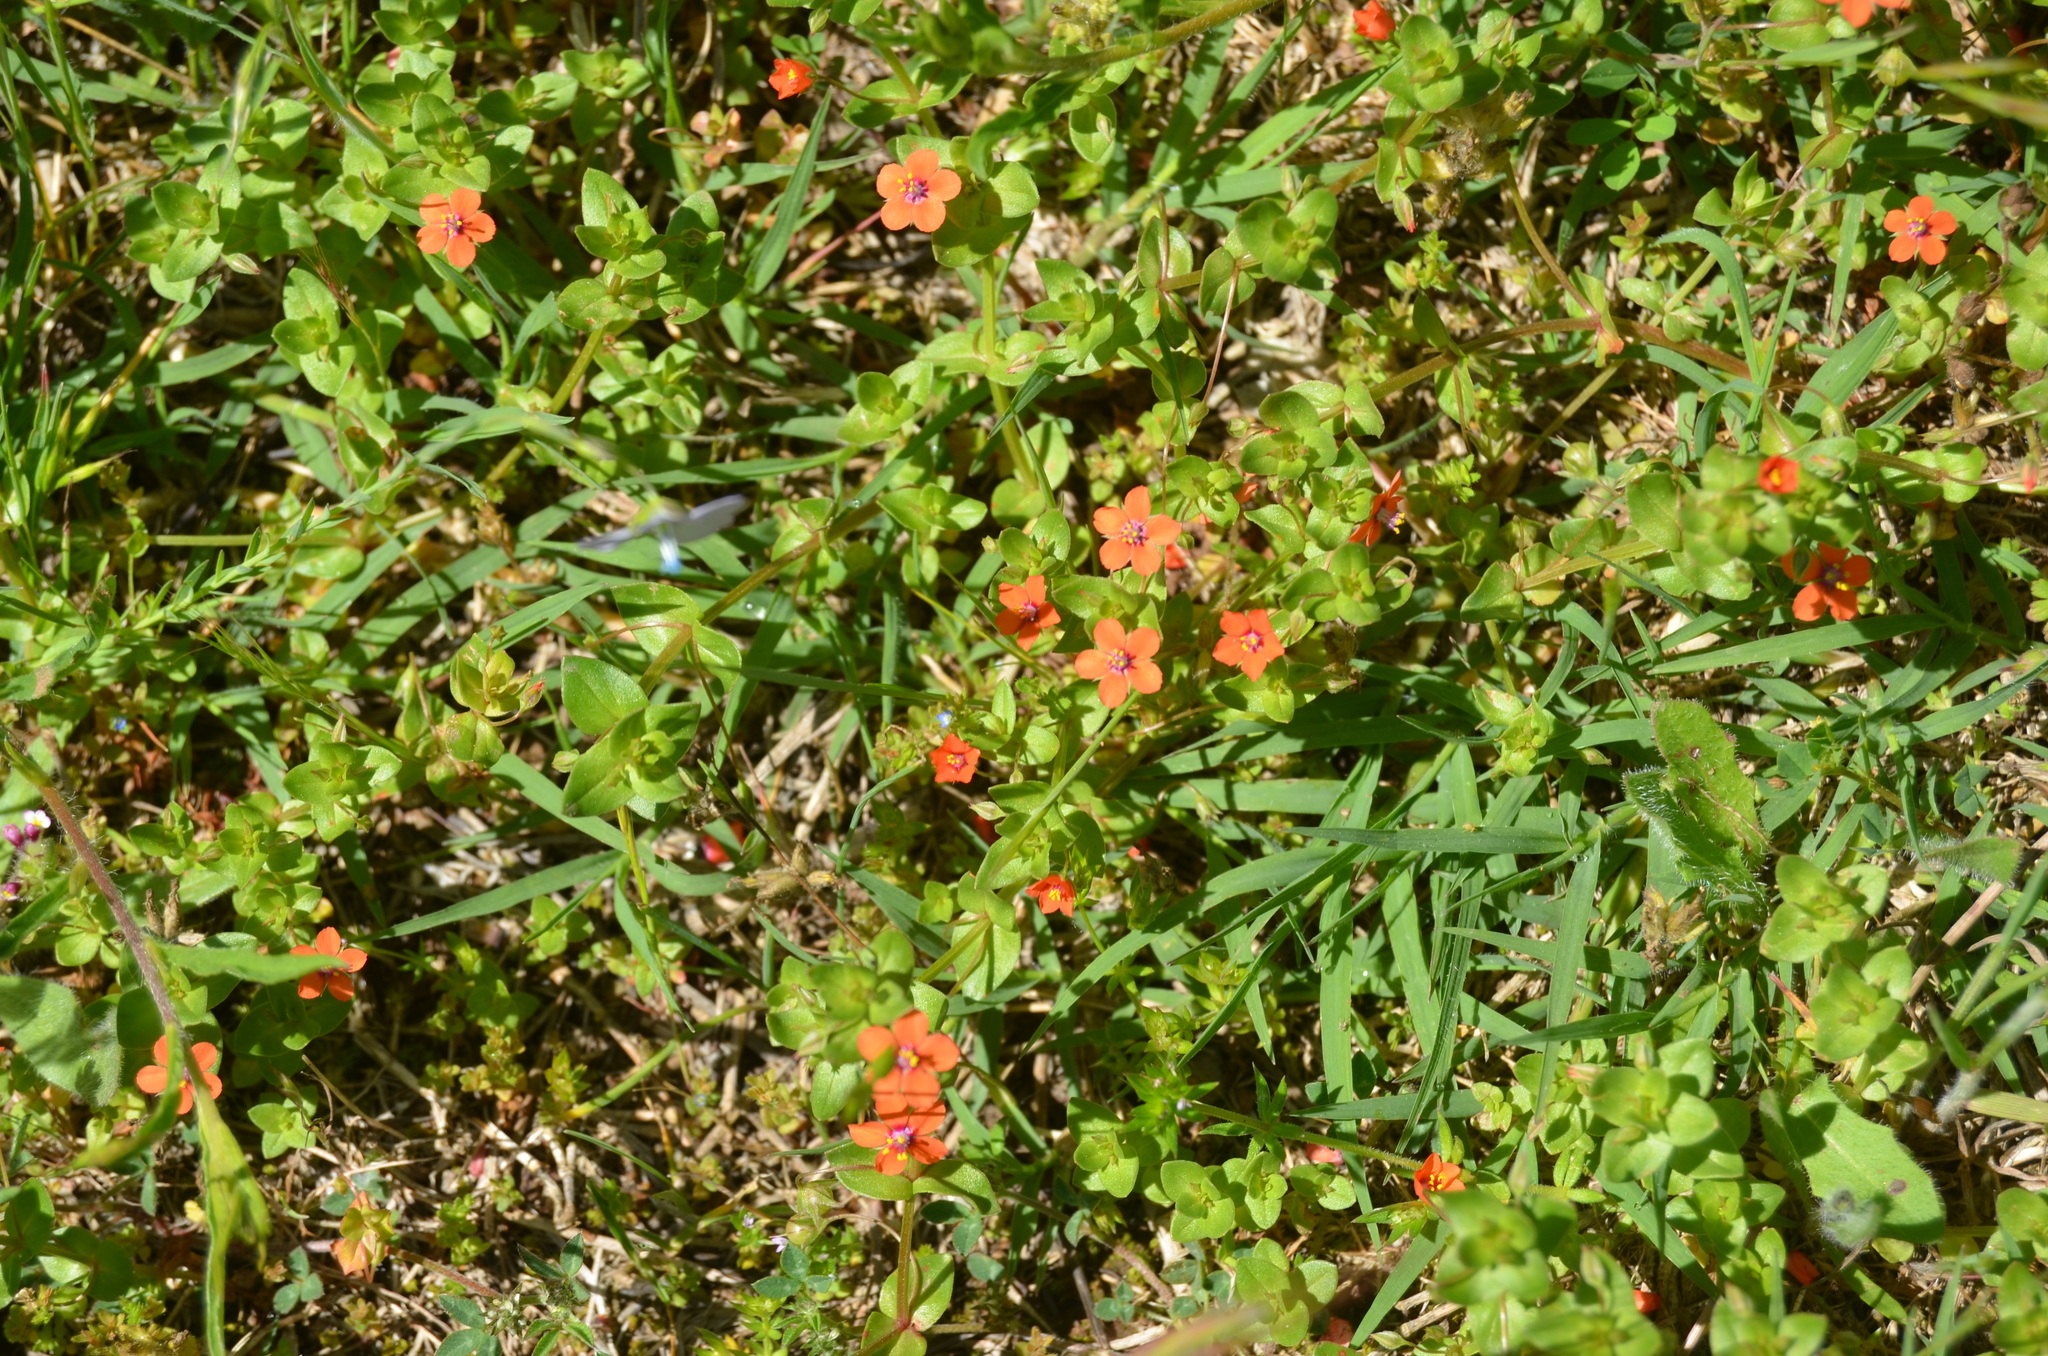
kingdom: Plantae
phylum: Tracheophyta
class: Magnoliopsida
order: Ericales
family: Primulaceae
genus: Lysimachia
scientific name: Lysimachia arvensis
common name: Scarlet pimpernel
